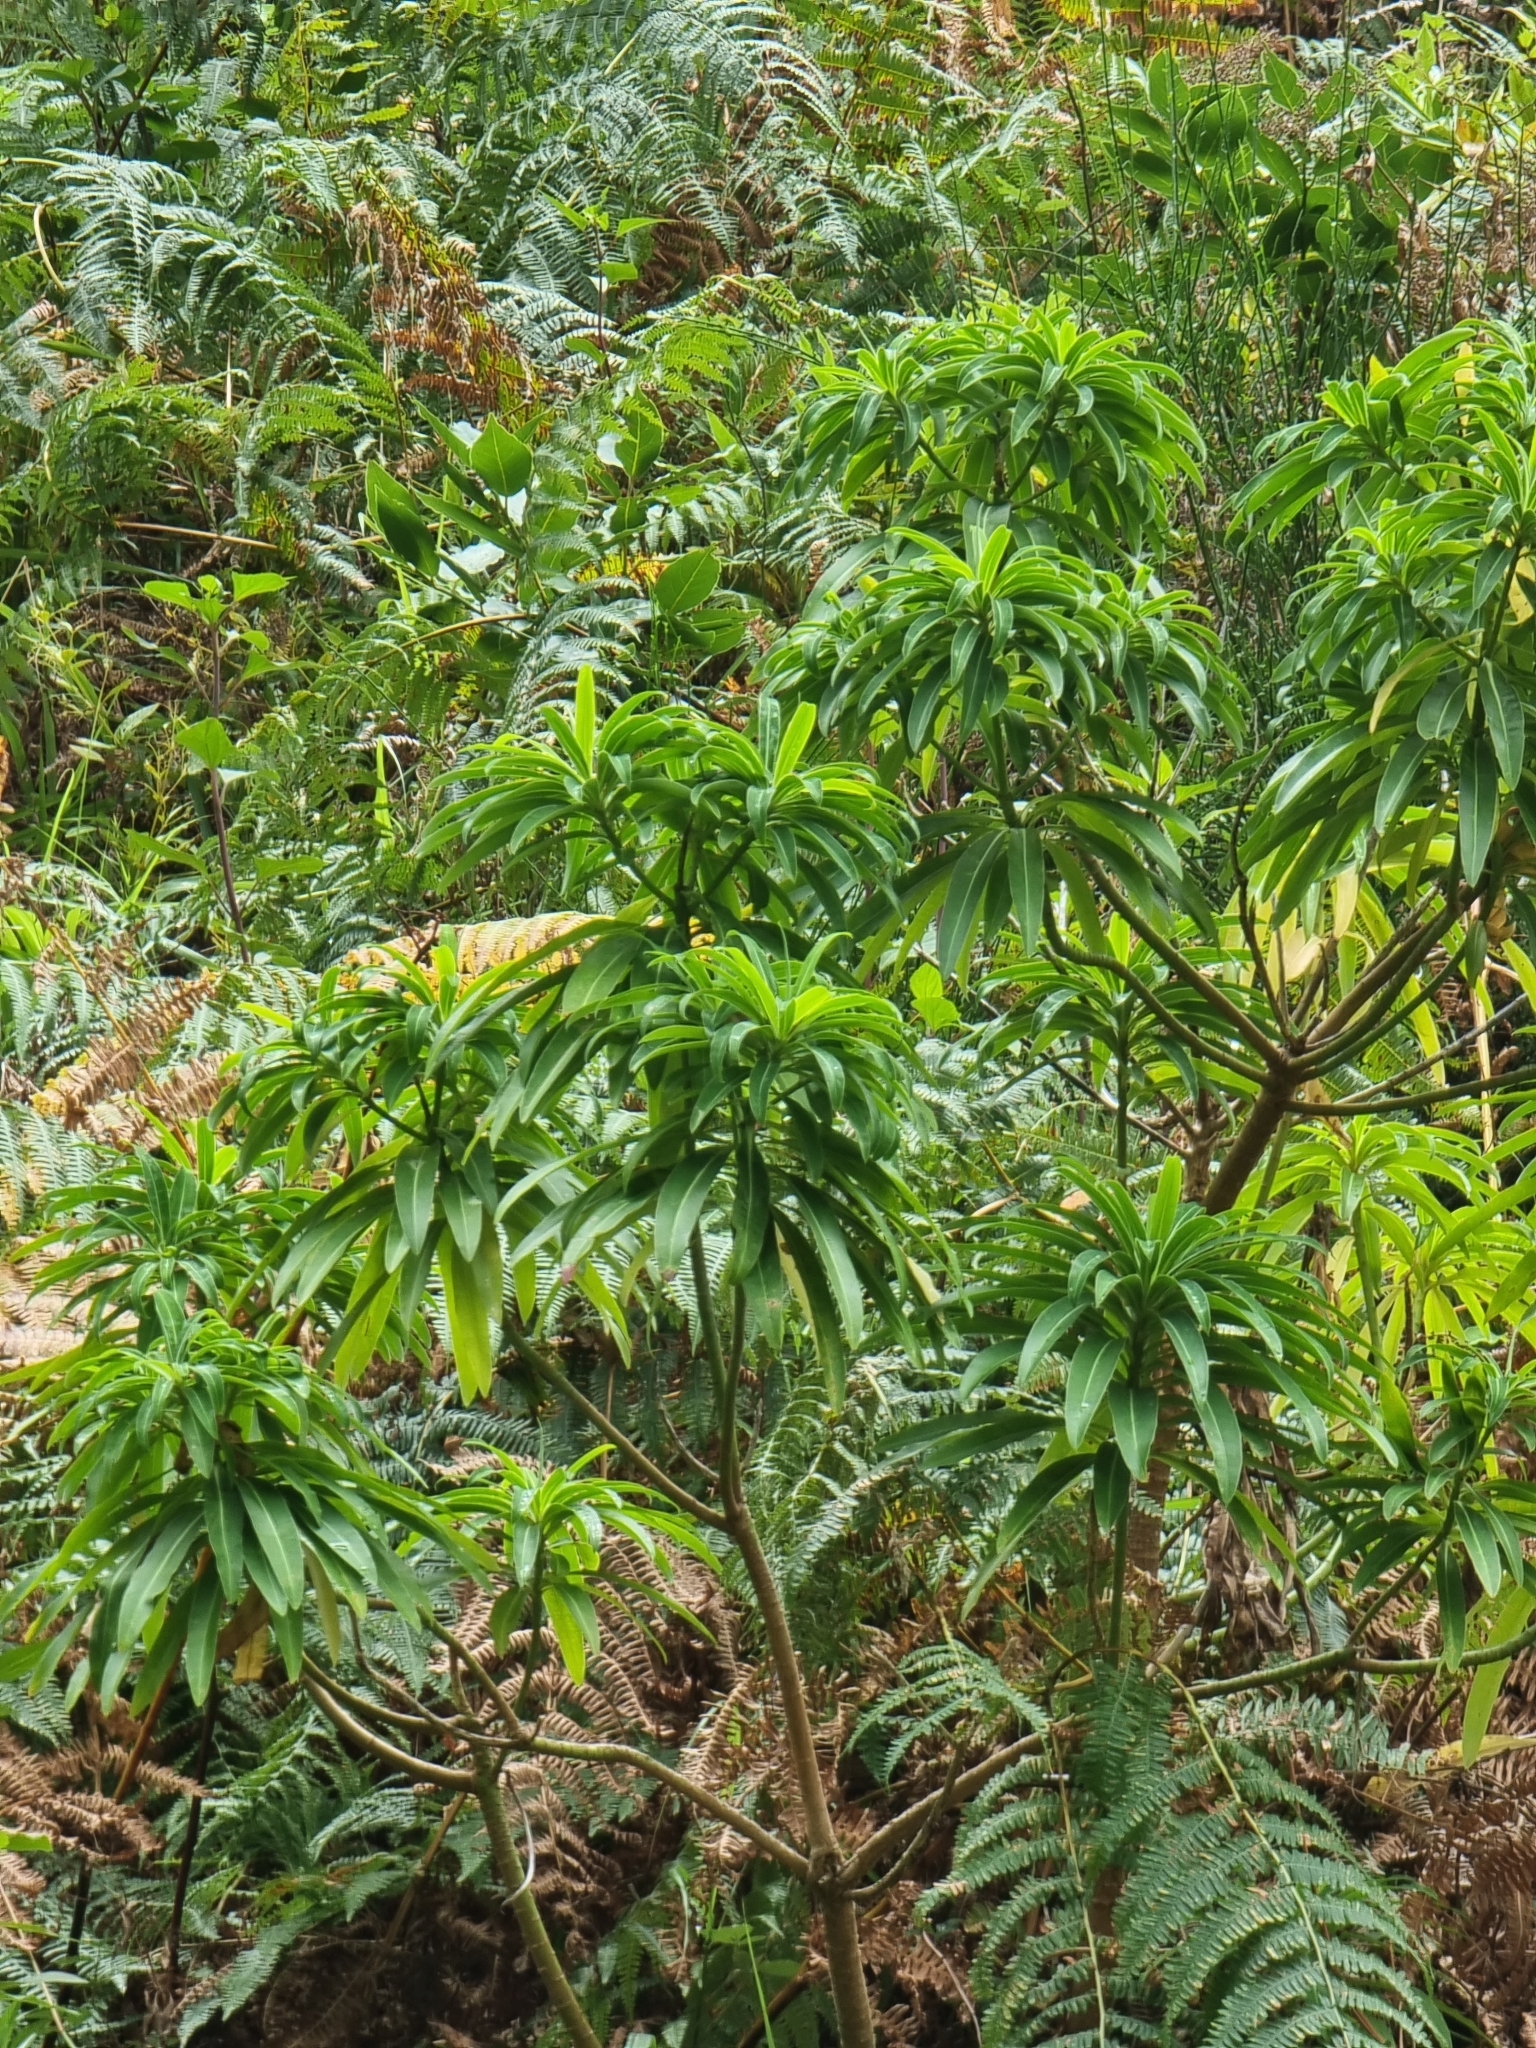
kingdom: Plantae
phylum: Tracheophyta
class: Magnoliopsida
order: Malpighiales
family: Euphorbiaceae
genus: Euphorbia
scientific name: Euphorbia mellifera
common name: Canary spurge
